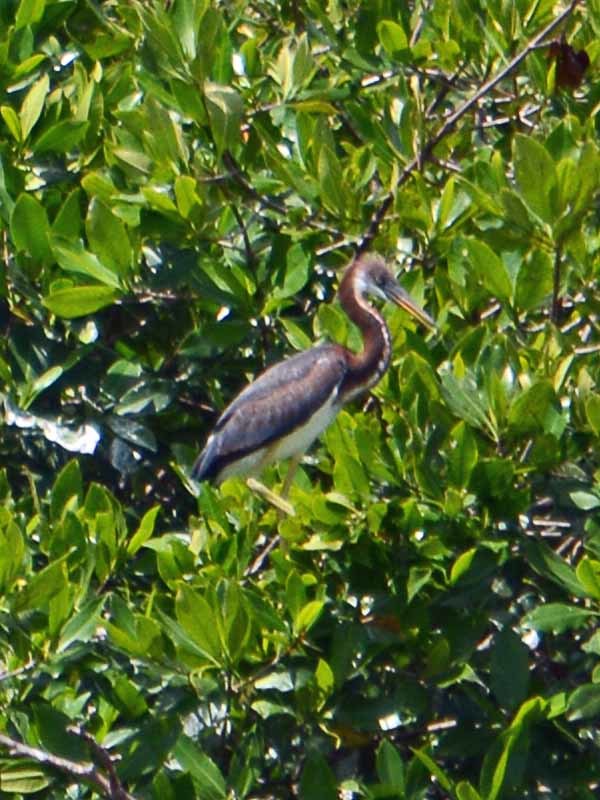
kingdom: Animalia
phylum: Chordata
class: Aves
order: Pelecaniformes
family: Ardeidae
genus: Egretta
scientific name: Egretta tricolor
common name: Tricolored heron
